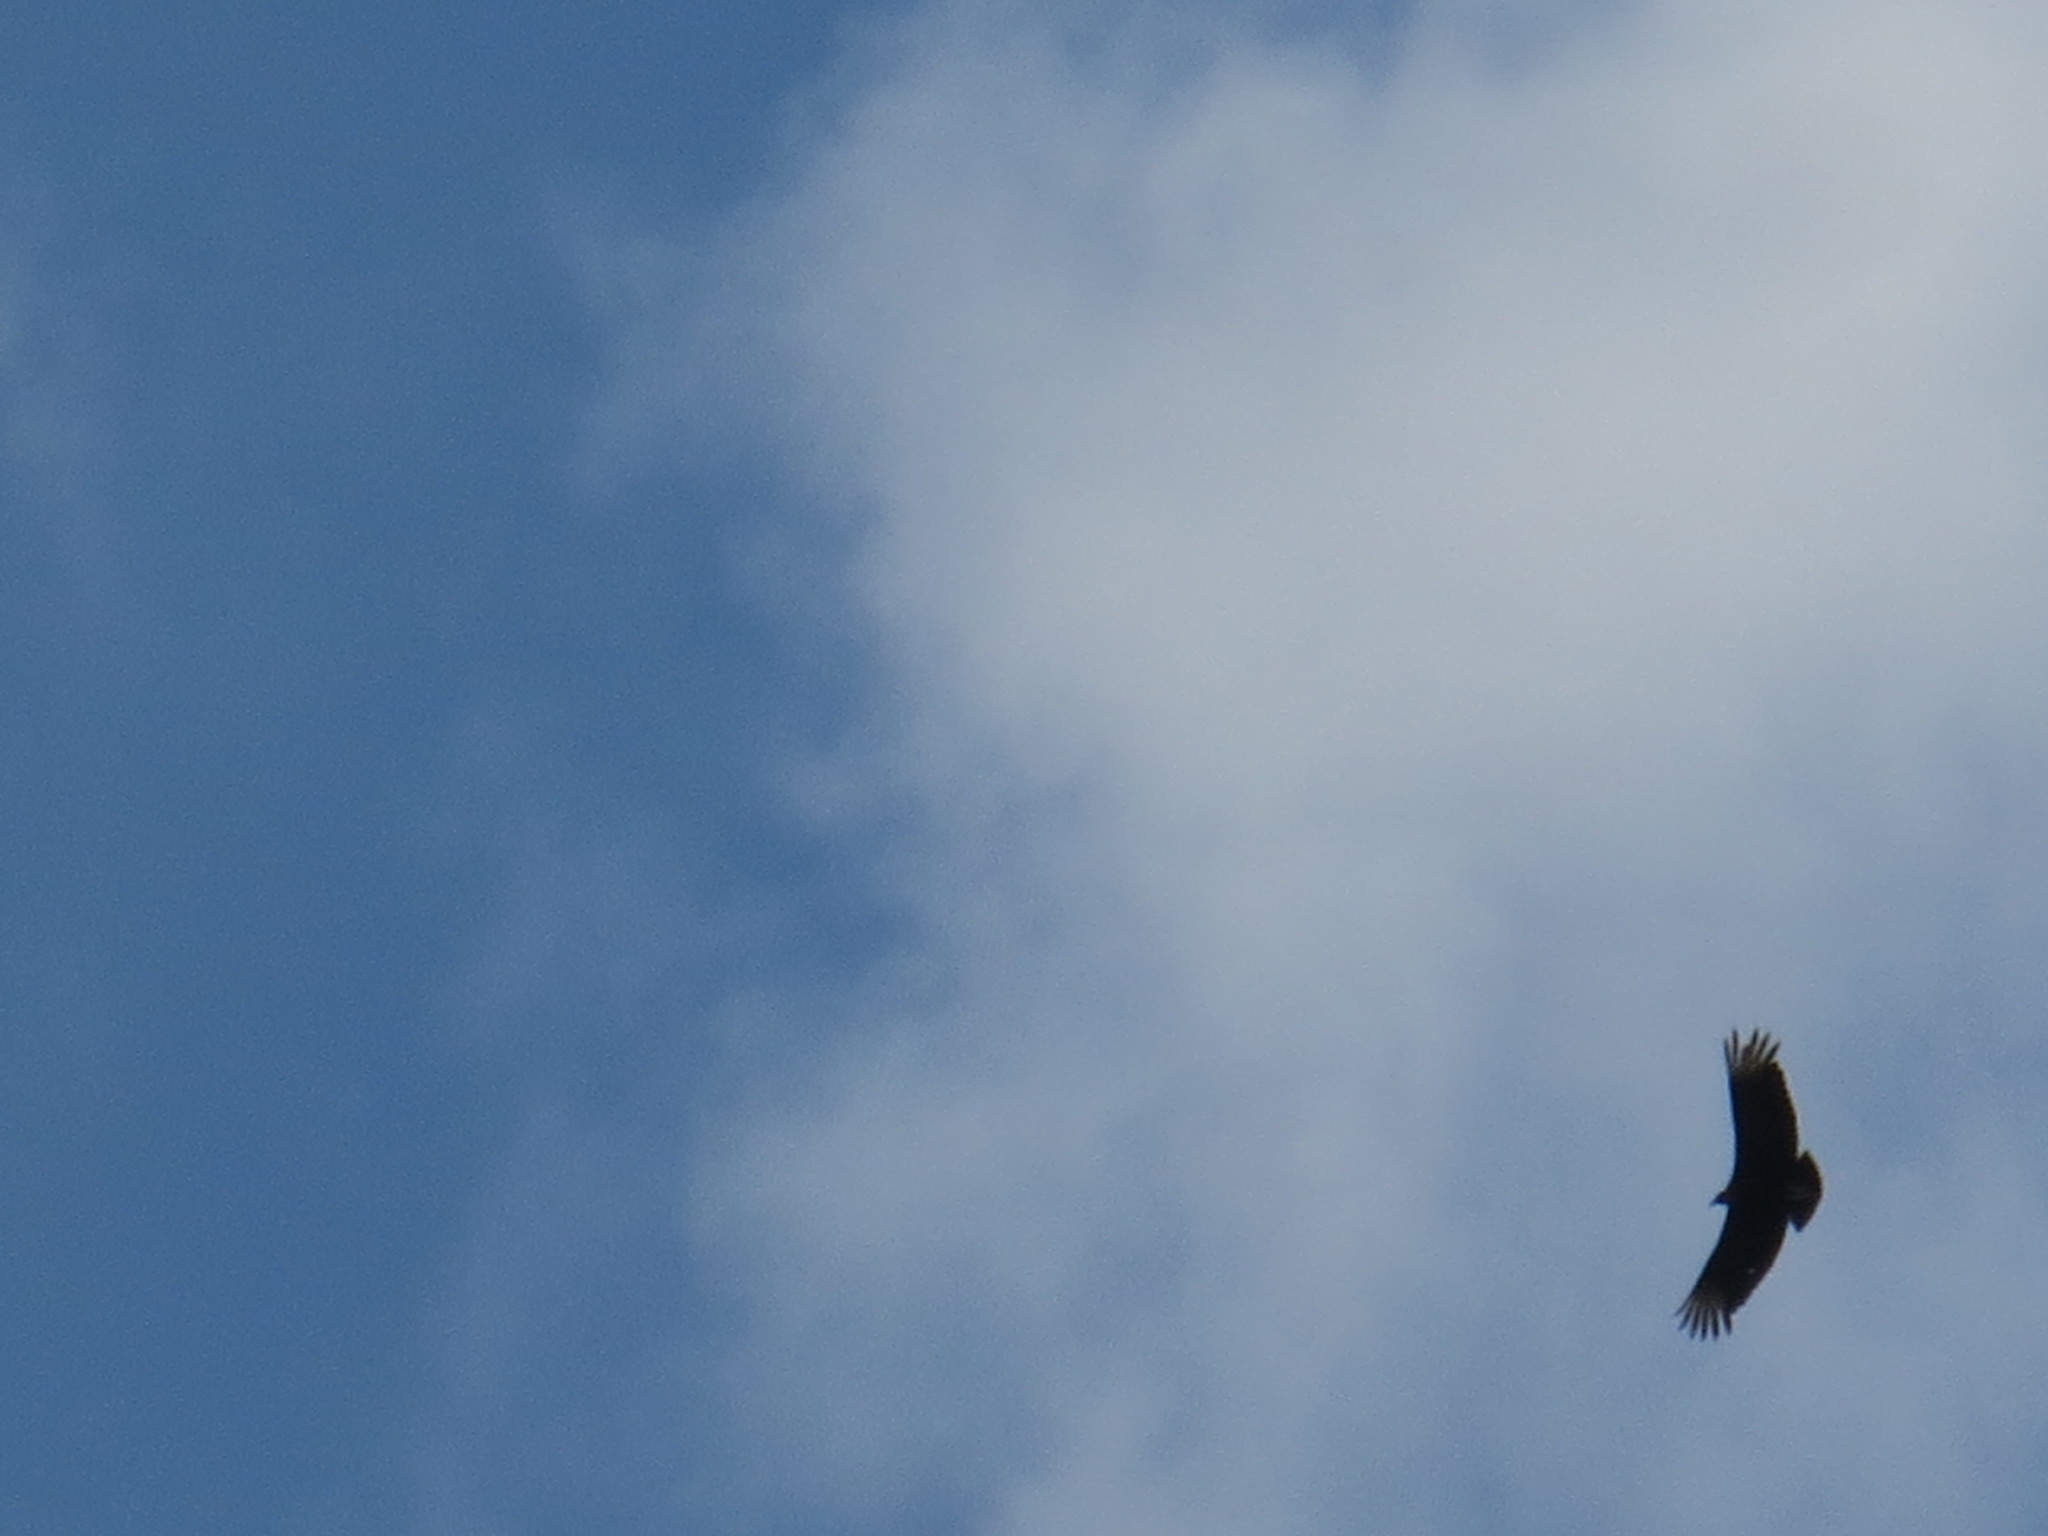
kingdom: Animalia
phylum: Chordata
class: Aves
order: Accipitriformes
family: Cathartidae
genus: Coragyps
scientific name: Coragyps atratus
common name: Black vulture
